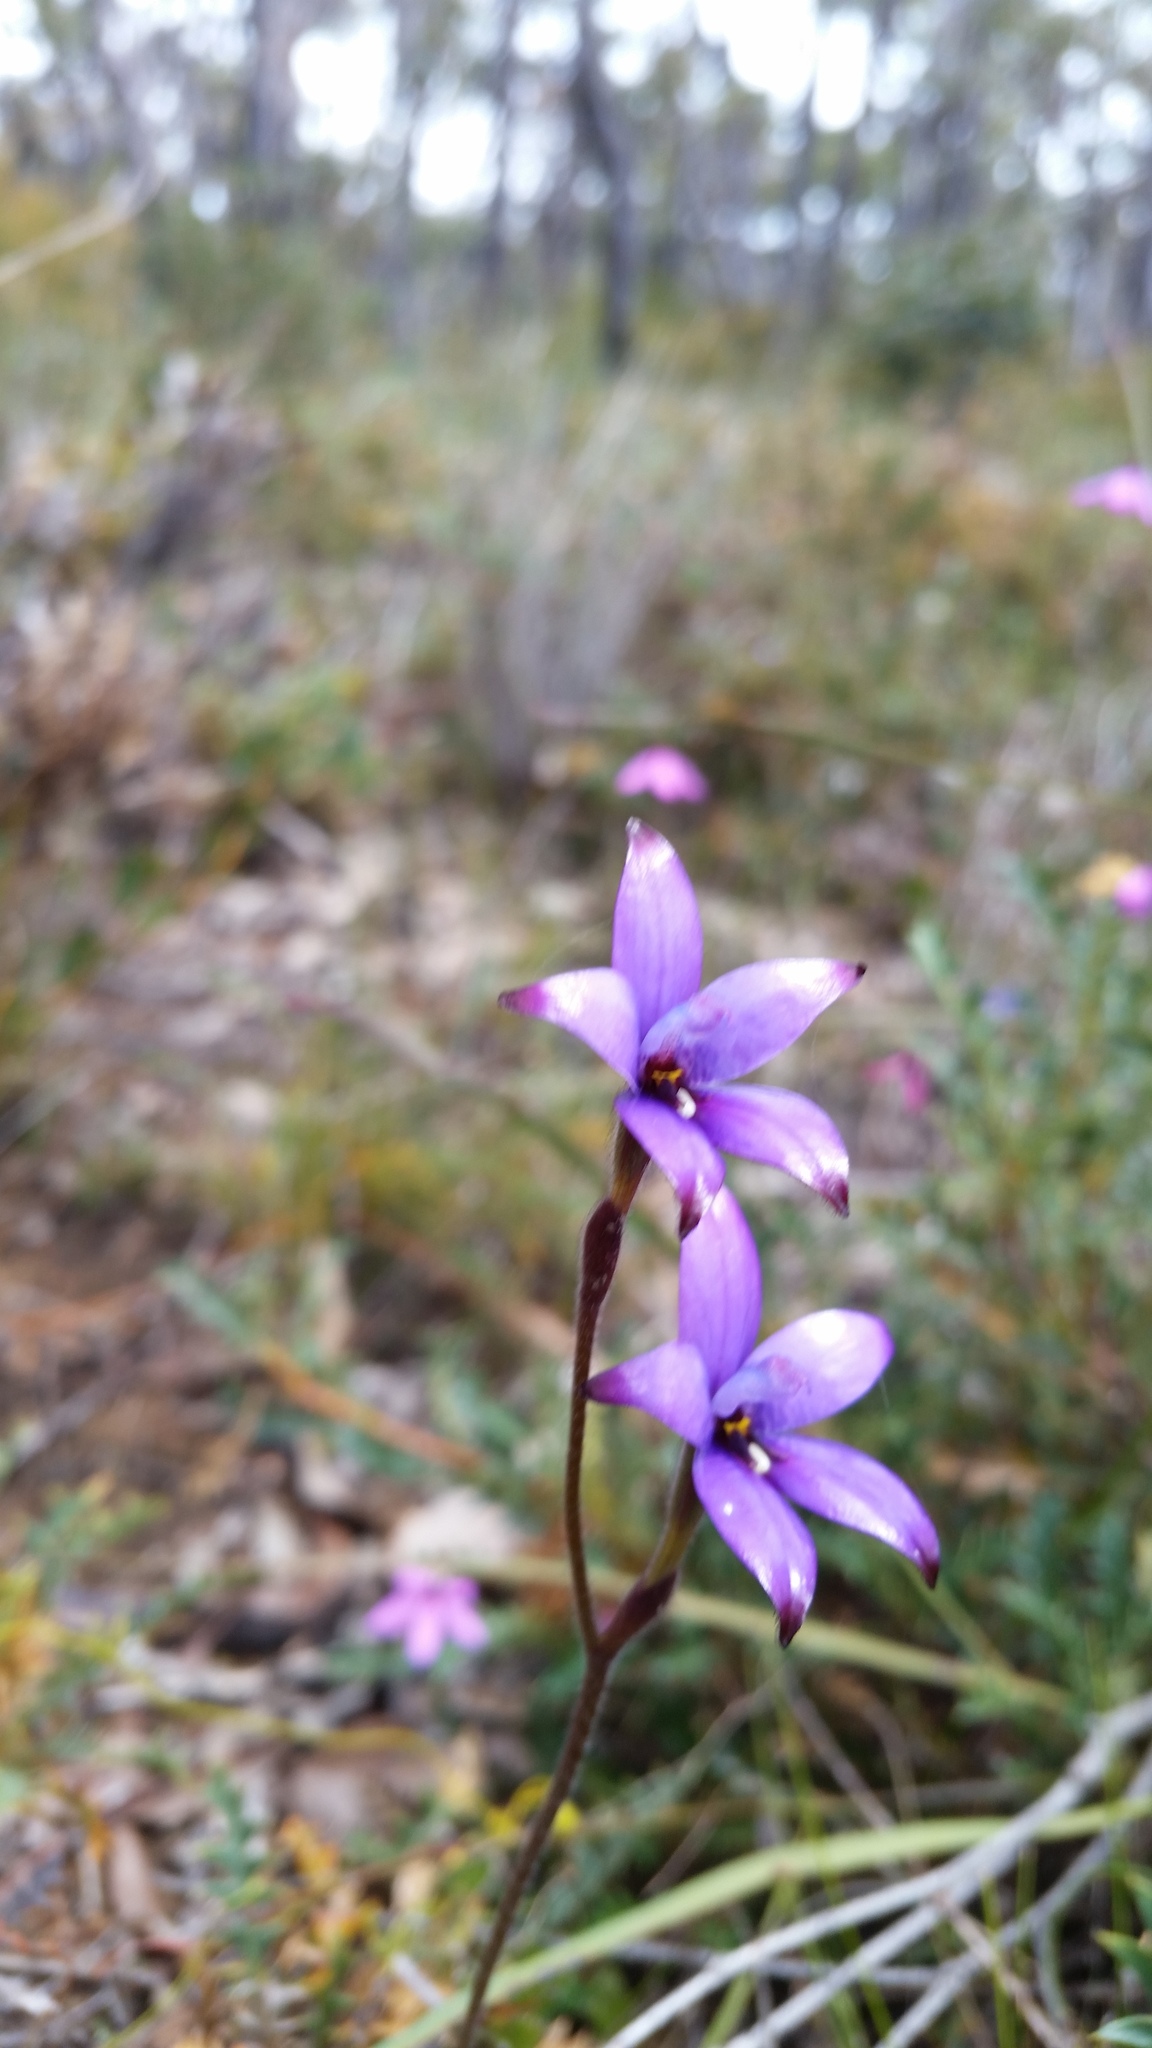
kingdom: Plantae
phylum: Tracheophyta
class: Liliopsida
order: Asparagales
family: Orchidaceae
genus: Caladenia
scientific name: Caladenia brunonis
